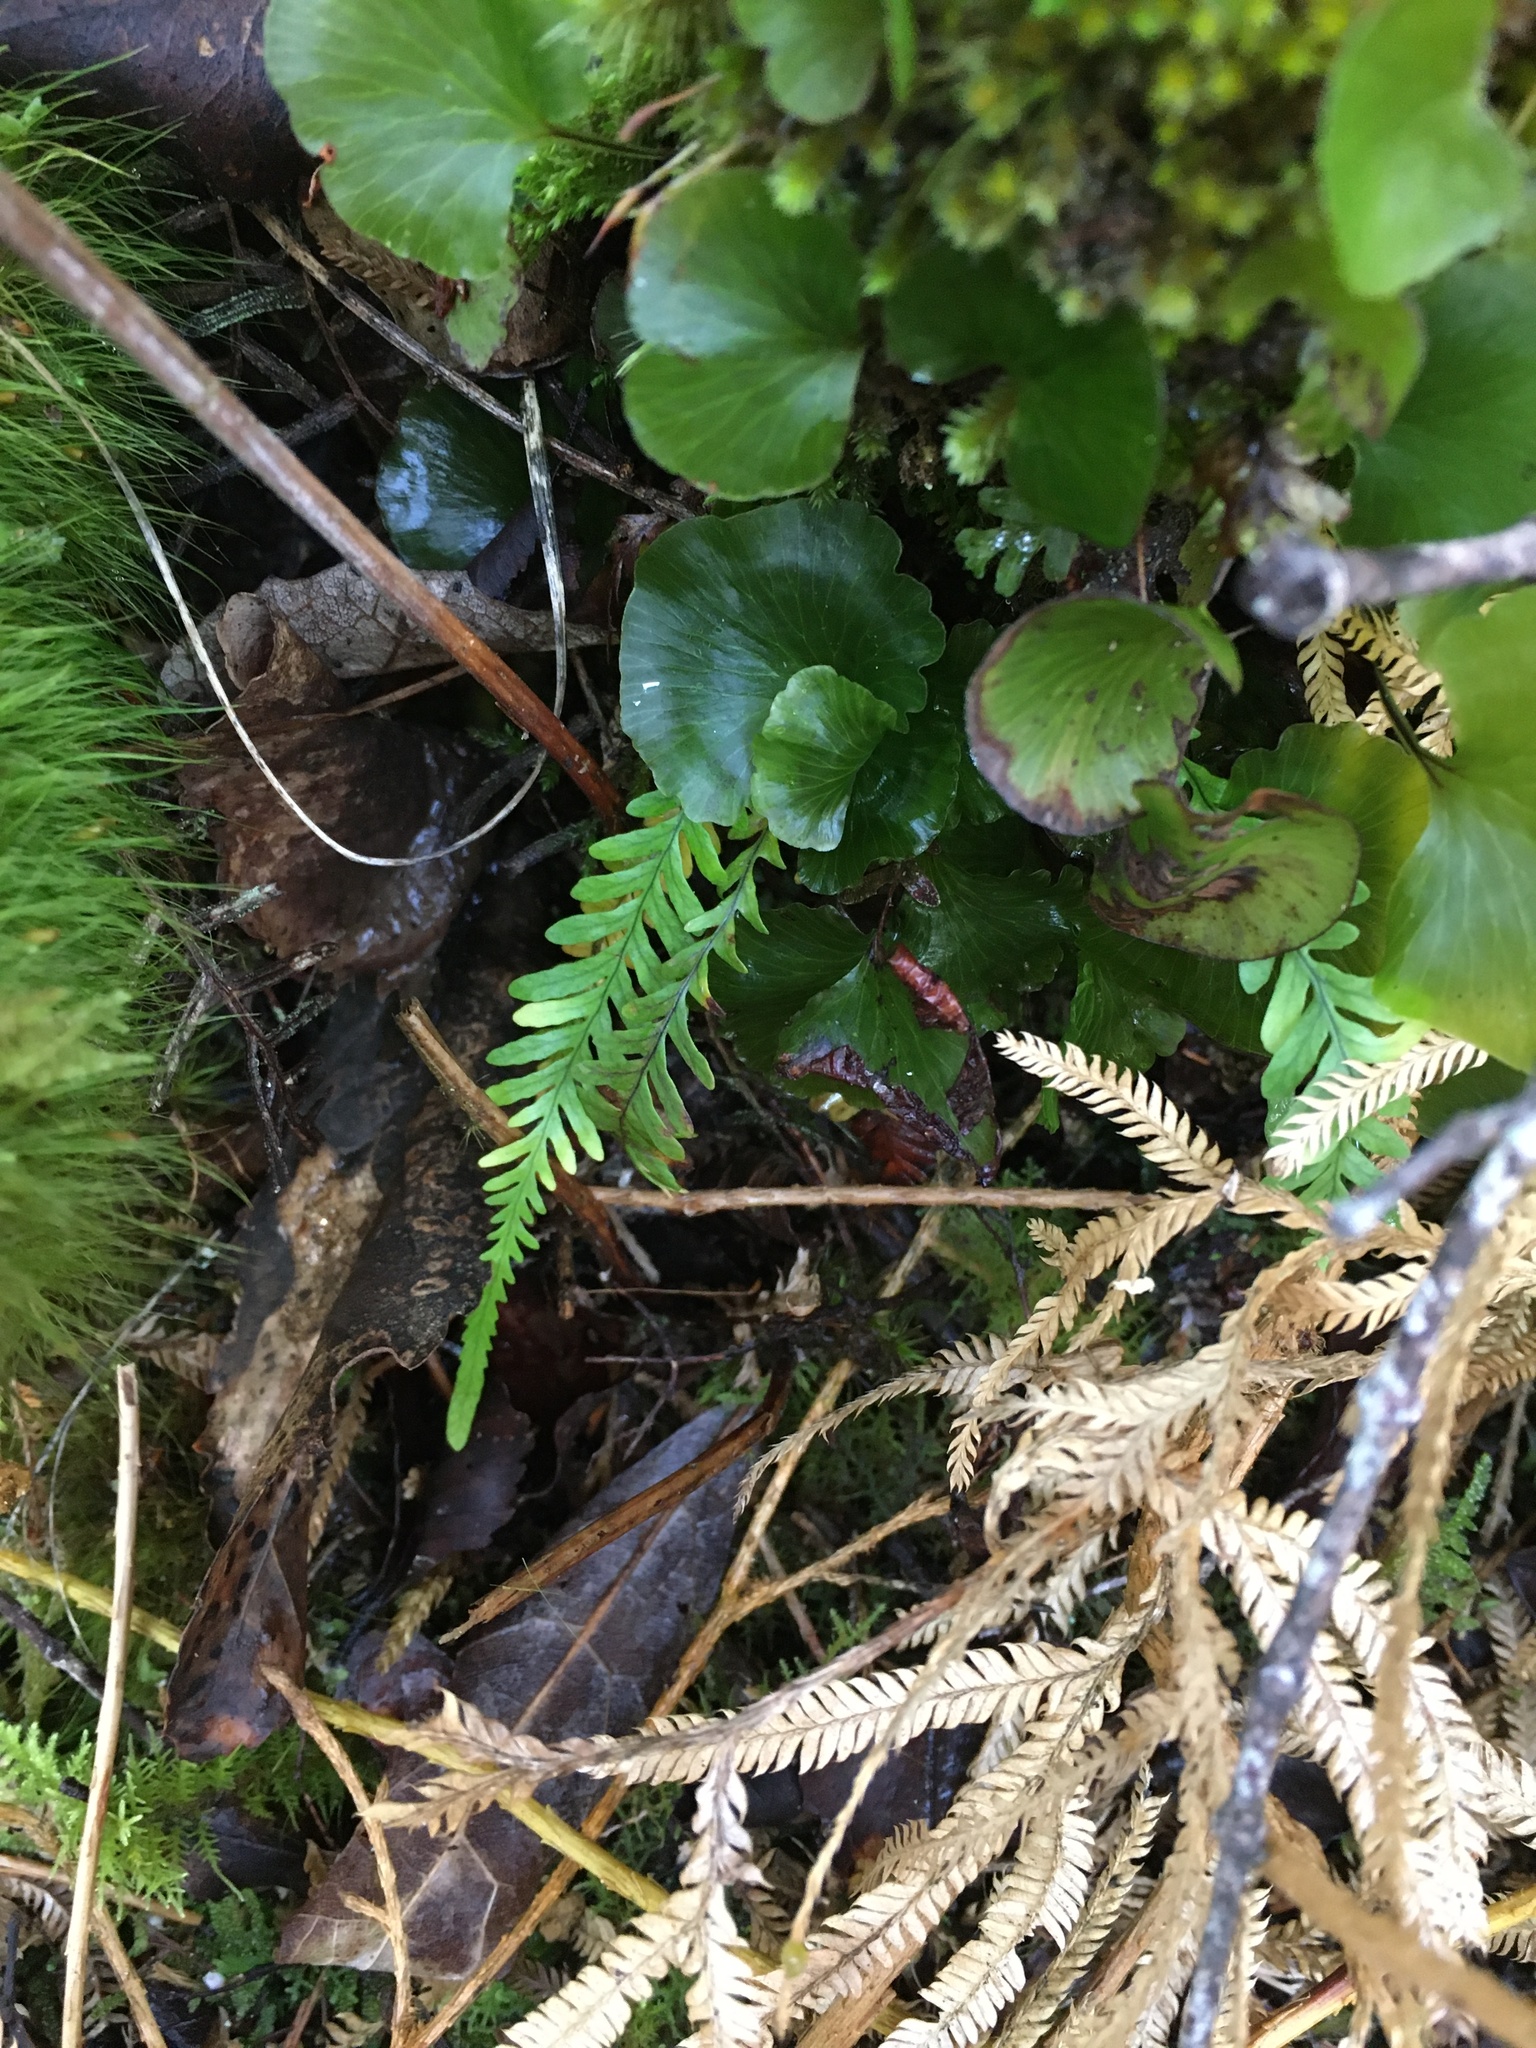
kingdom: Plantae
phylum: Tracheophyta
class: Polypodiopsida
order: Hymenophyllales
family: Hymenophyllaceae
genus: Hymenophyllum
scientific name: Hymenophyllum nephrophyllum
